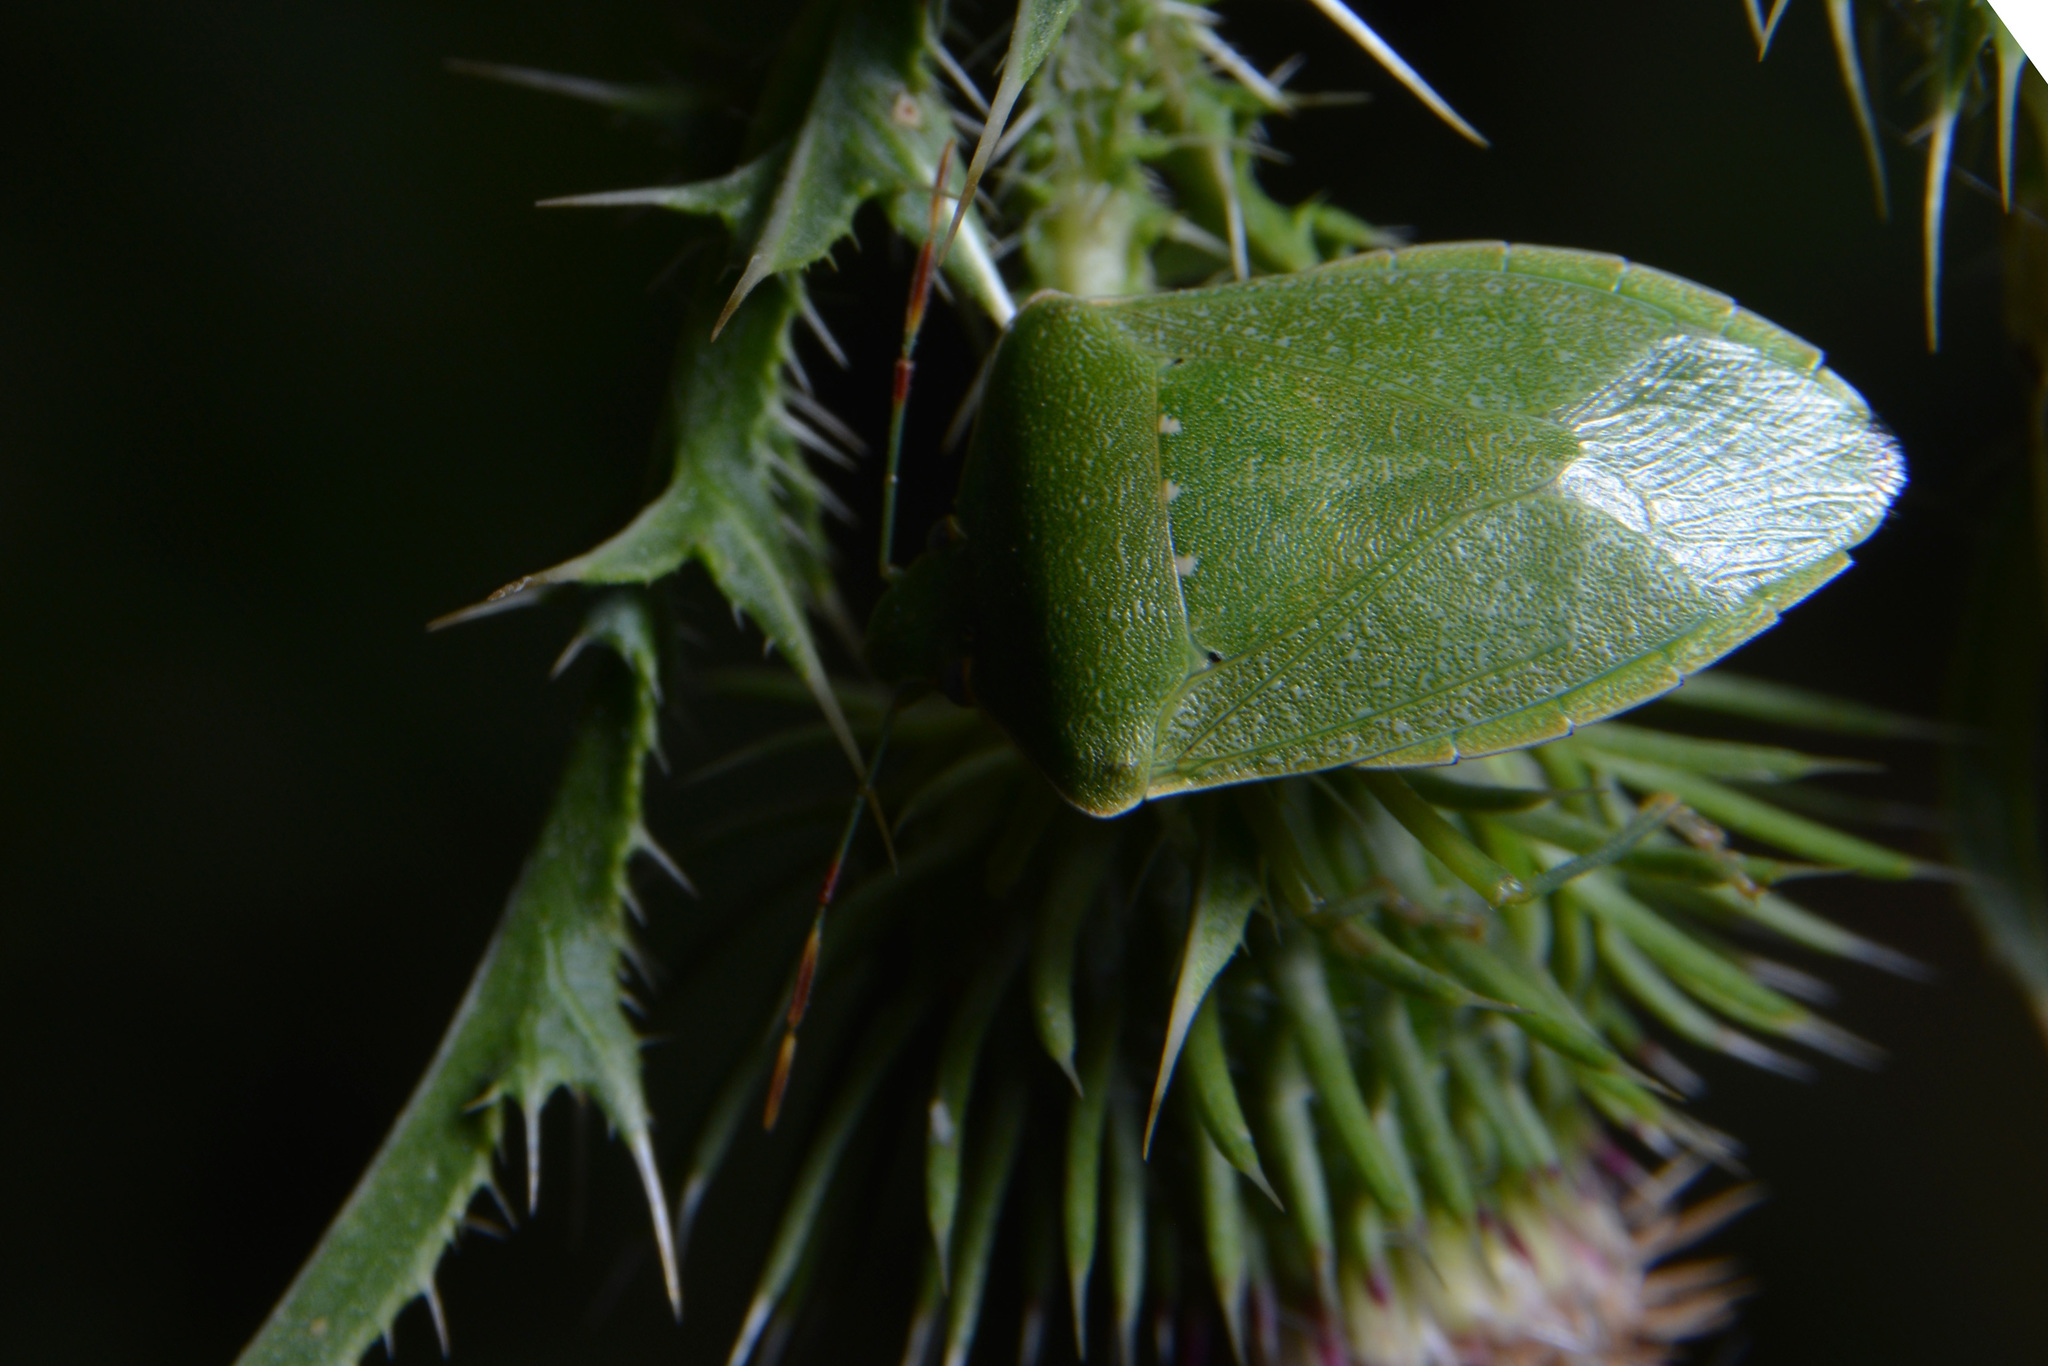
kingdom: Animalia
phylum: Arthropoda
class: Insecta
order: Hemiptera
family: Pentatomidae
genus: Nezara
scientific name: Nezara viridula
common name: Southern green stink bug
